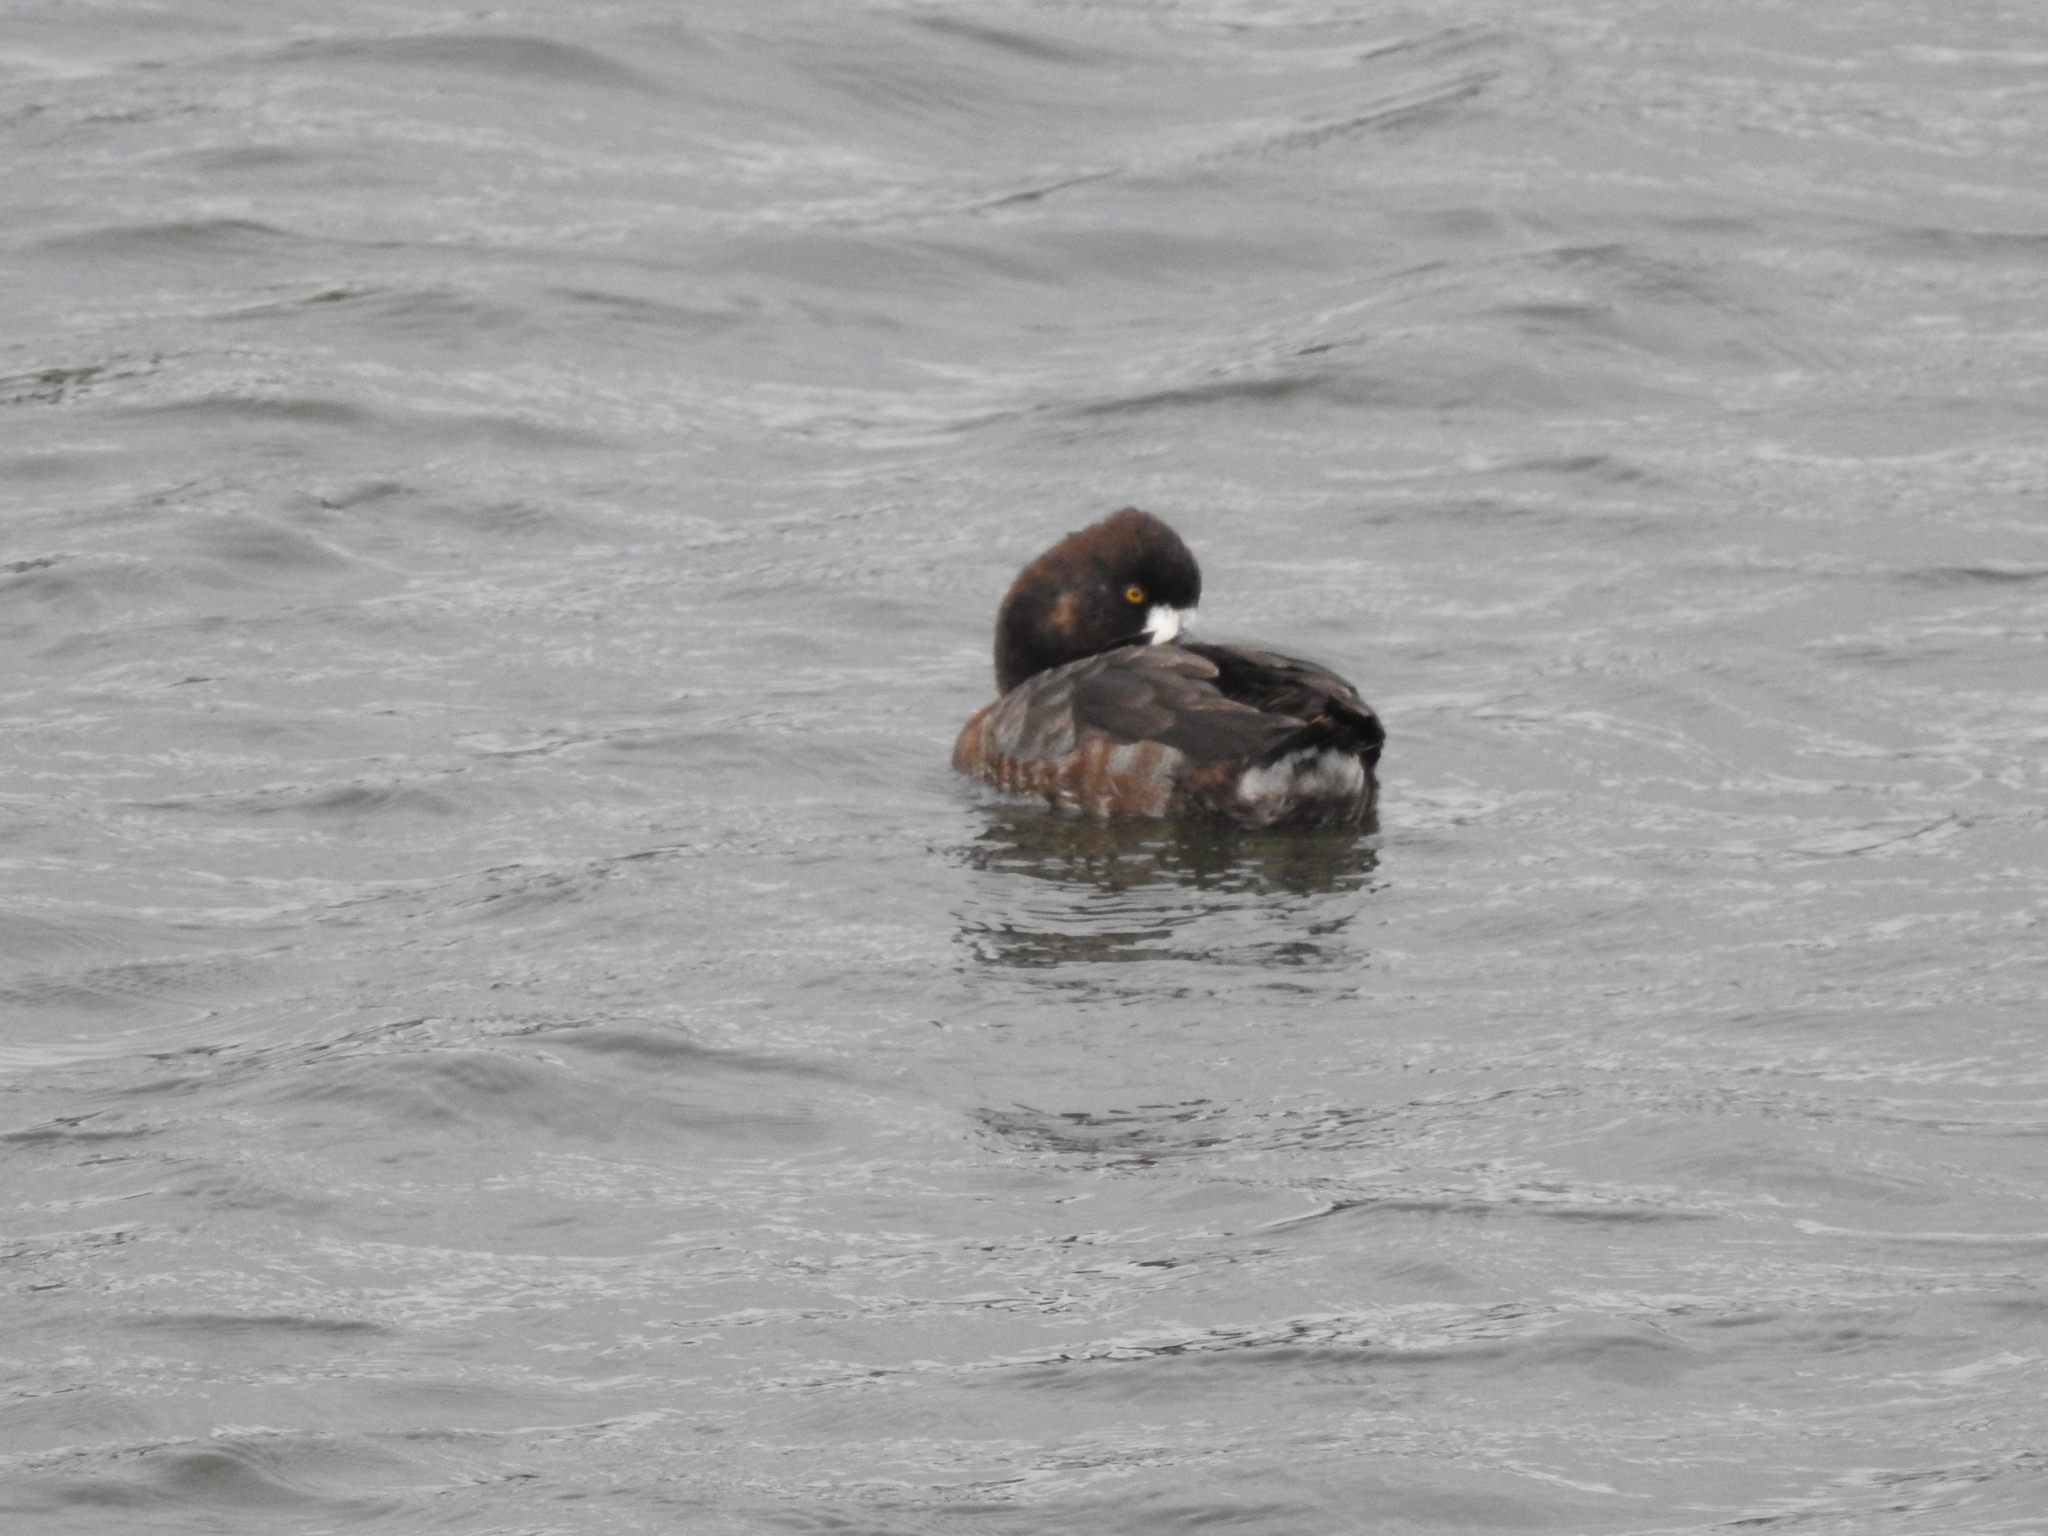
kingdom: Animalia
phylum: Chordata
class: Aves
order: Anseriformes
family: Anatidae
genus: Aythya
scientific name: Aythya affinis
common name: Lesser scaup
